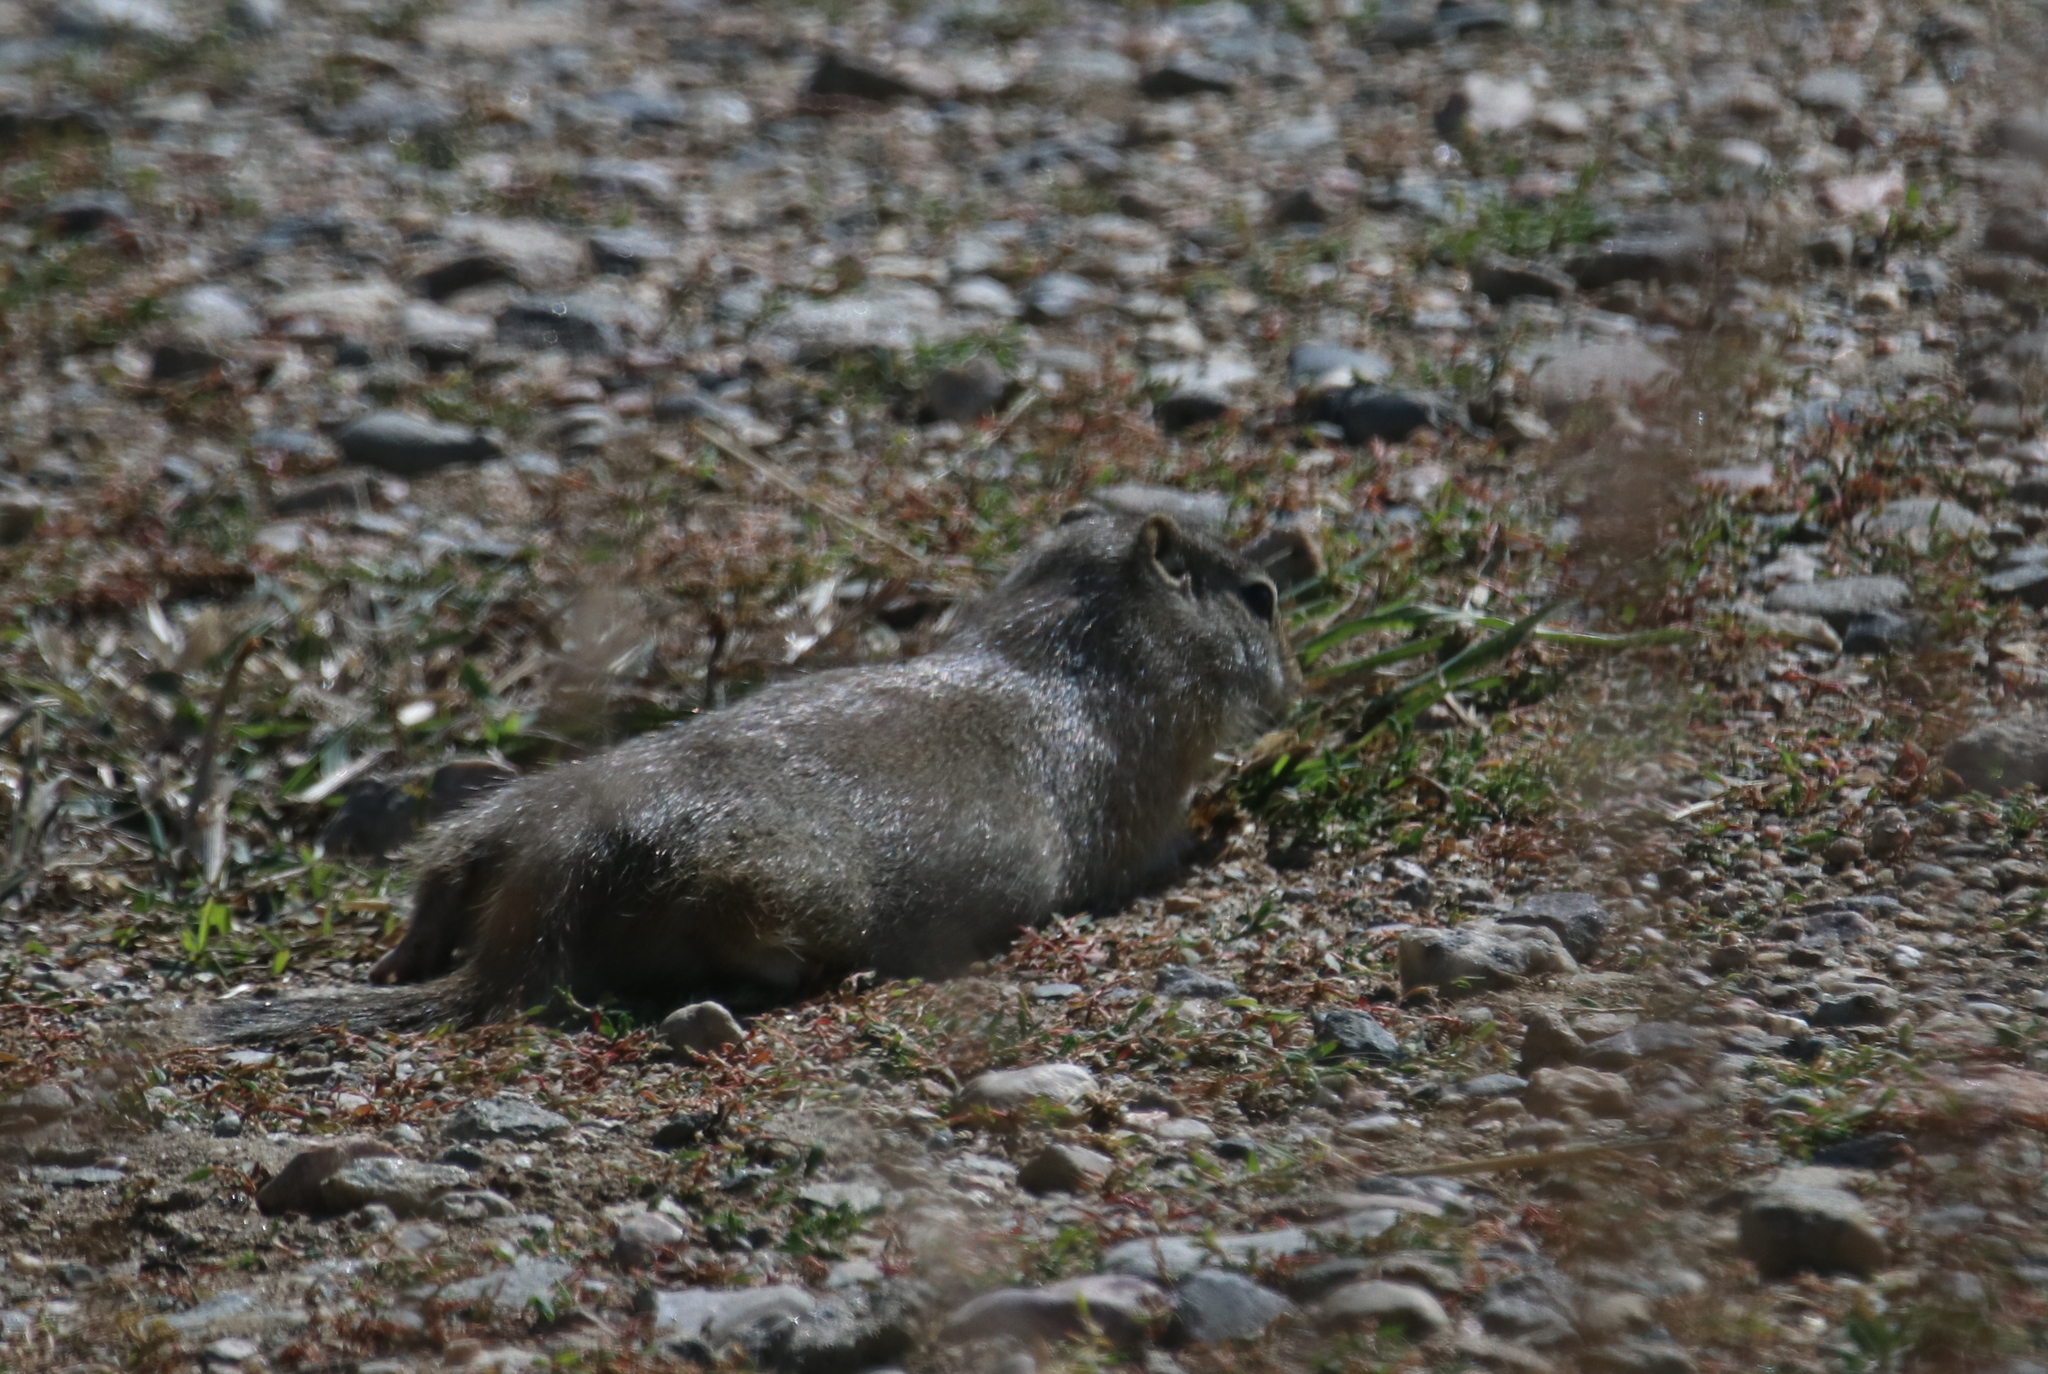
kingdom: Animalia
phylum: Chordata
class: Mammalia
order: Rodentia
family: Sciuridae
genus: Urocitellus
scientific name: Urocitellus elegans
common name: Wyoming ground squirrel
